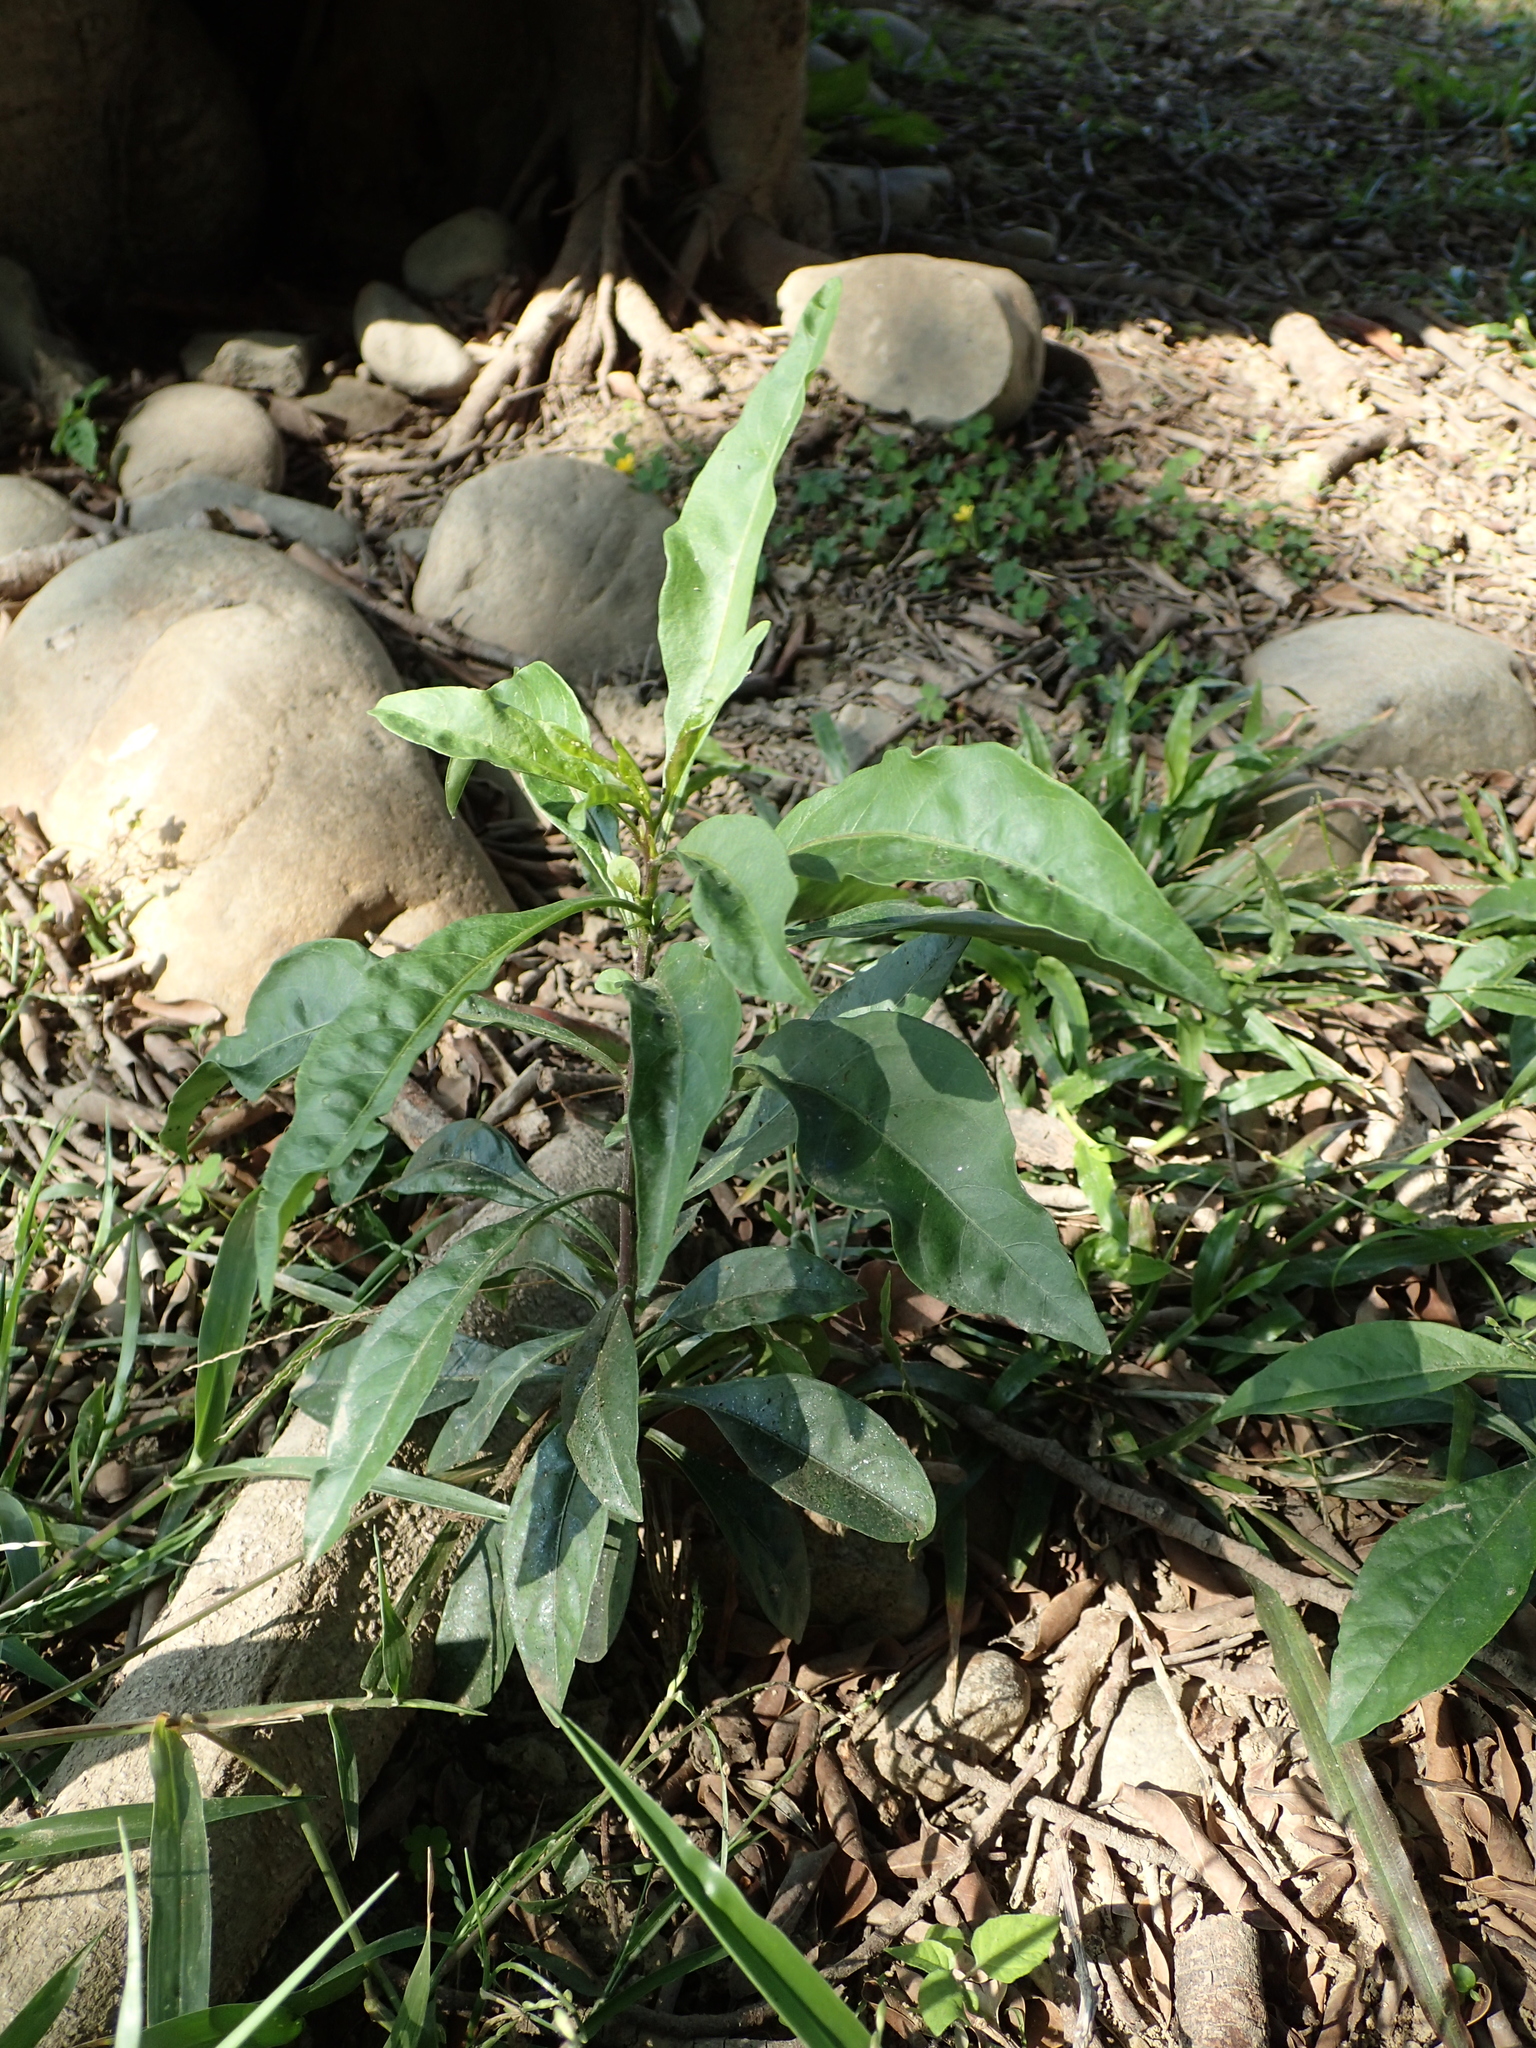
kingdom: Plantae
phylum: Tracheophyta
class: Magnoliopsida
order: Solanales
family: Solanaceae
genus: Solanum
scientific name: Solanum diphyllum
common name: Twoleaf nightshade
